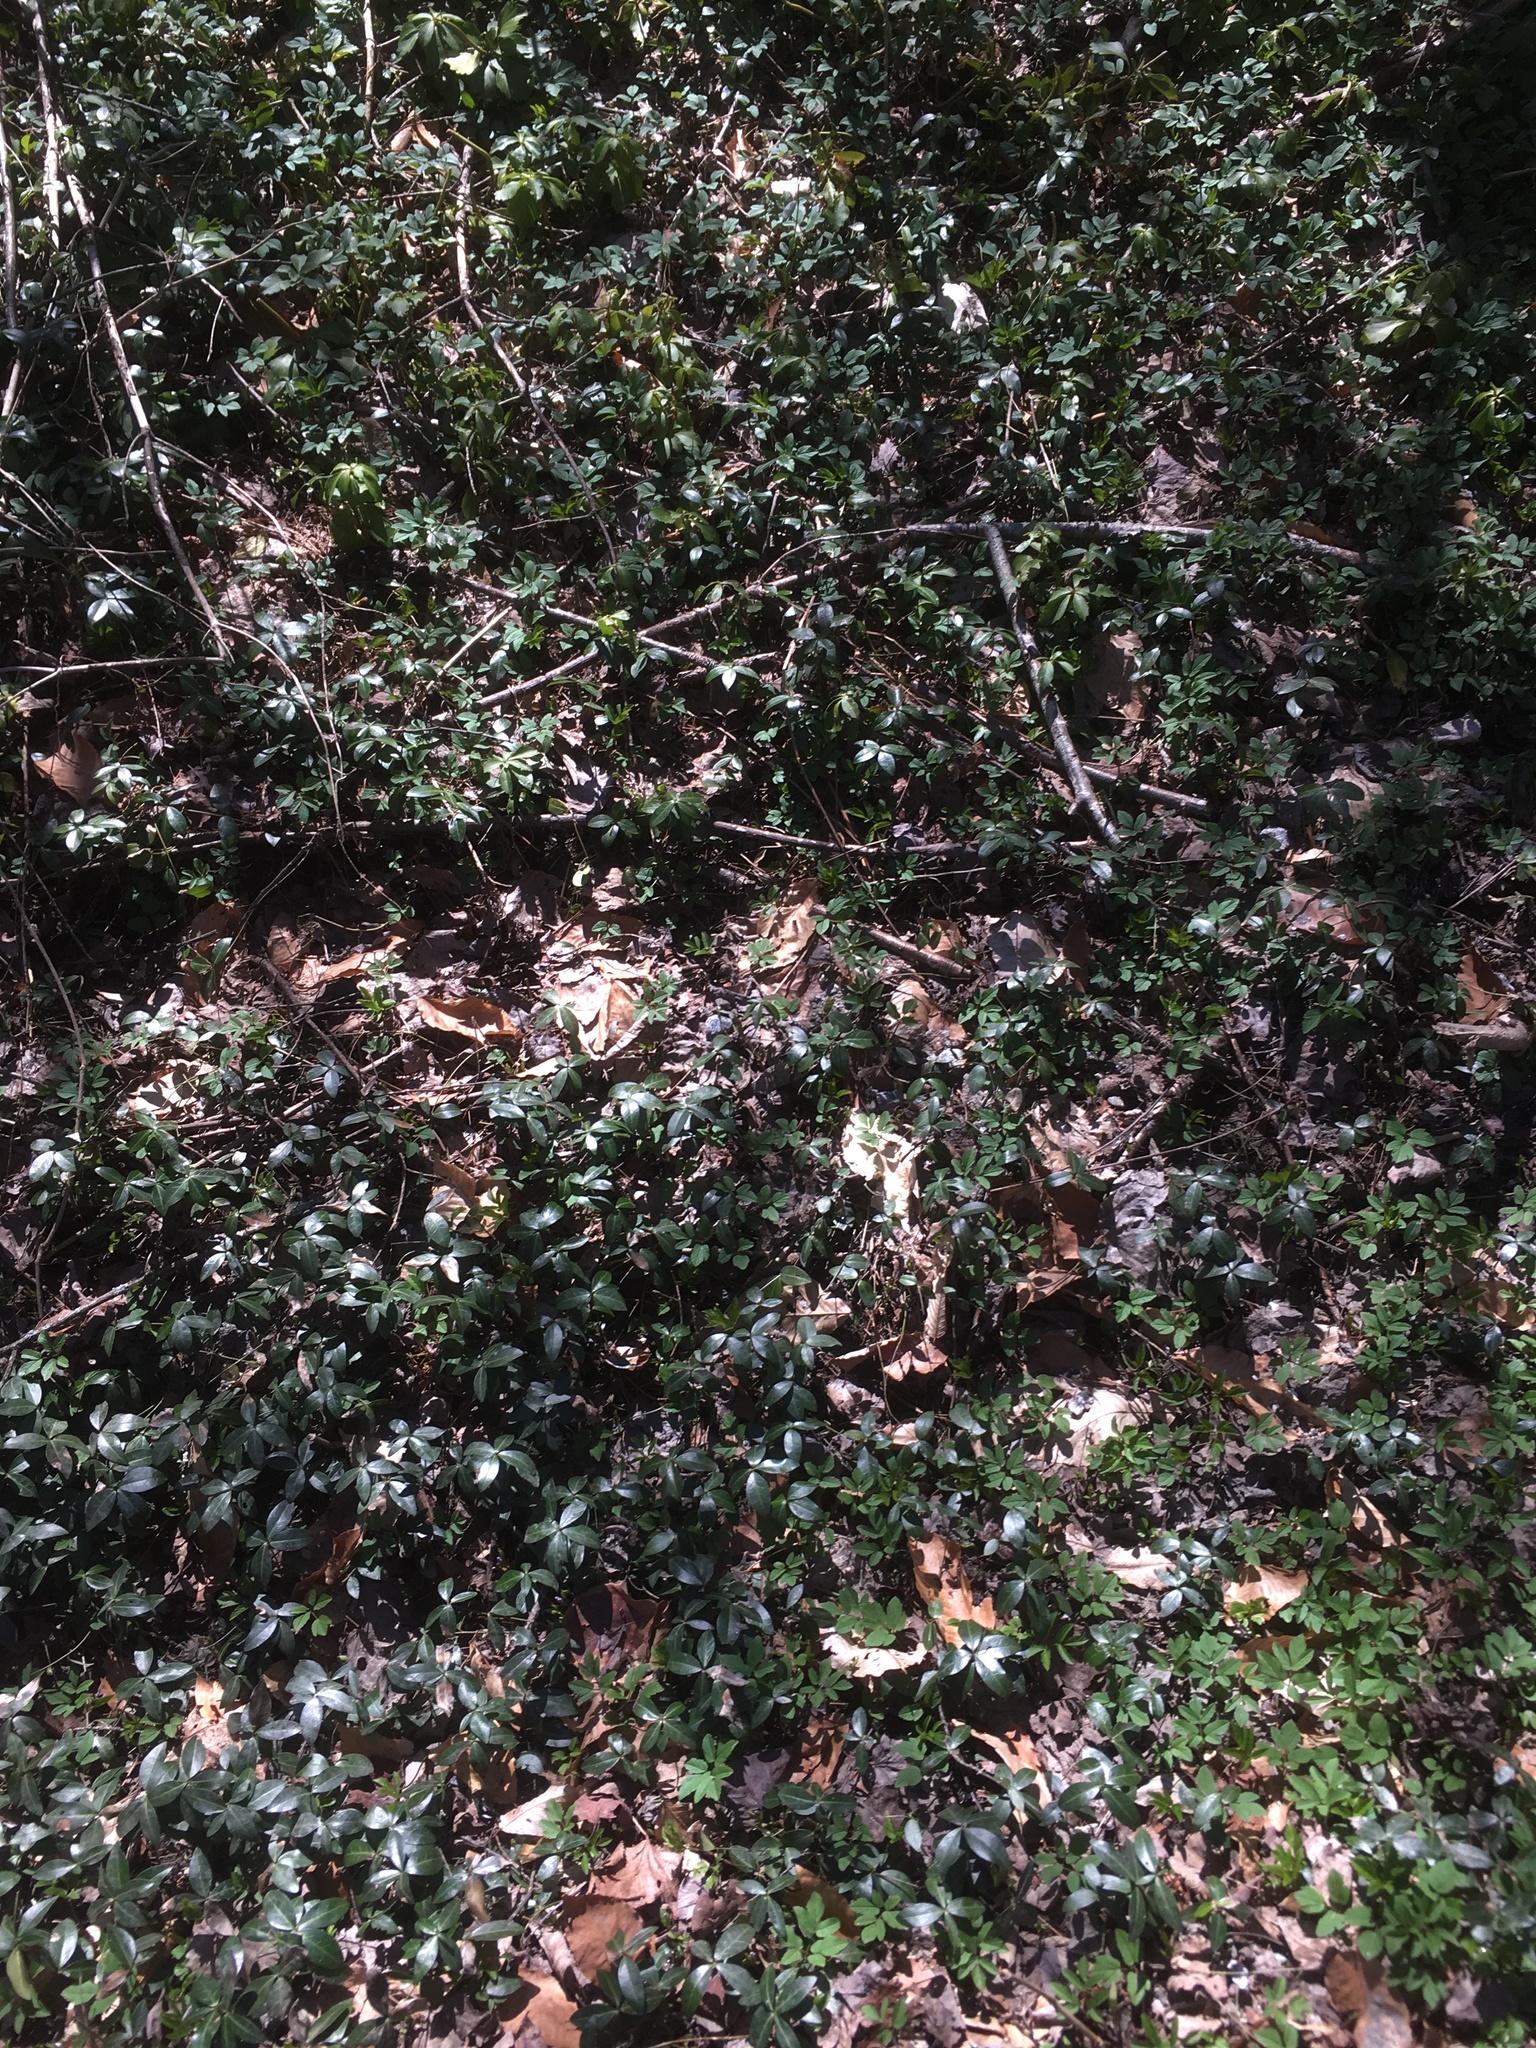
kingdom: Plantae
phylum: Tracheophyta
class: Magnoliopsida
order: Gentianales
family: Apocynaceae
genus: Vinca
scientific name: Vinca minor
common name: Lesser periwinkle
